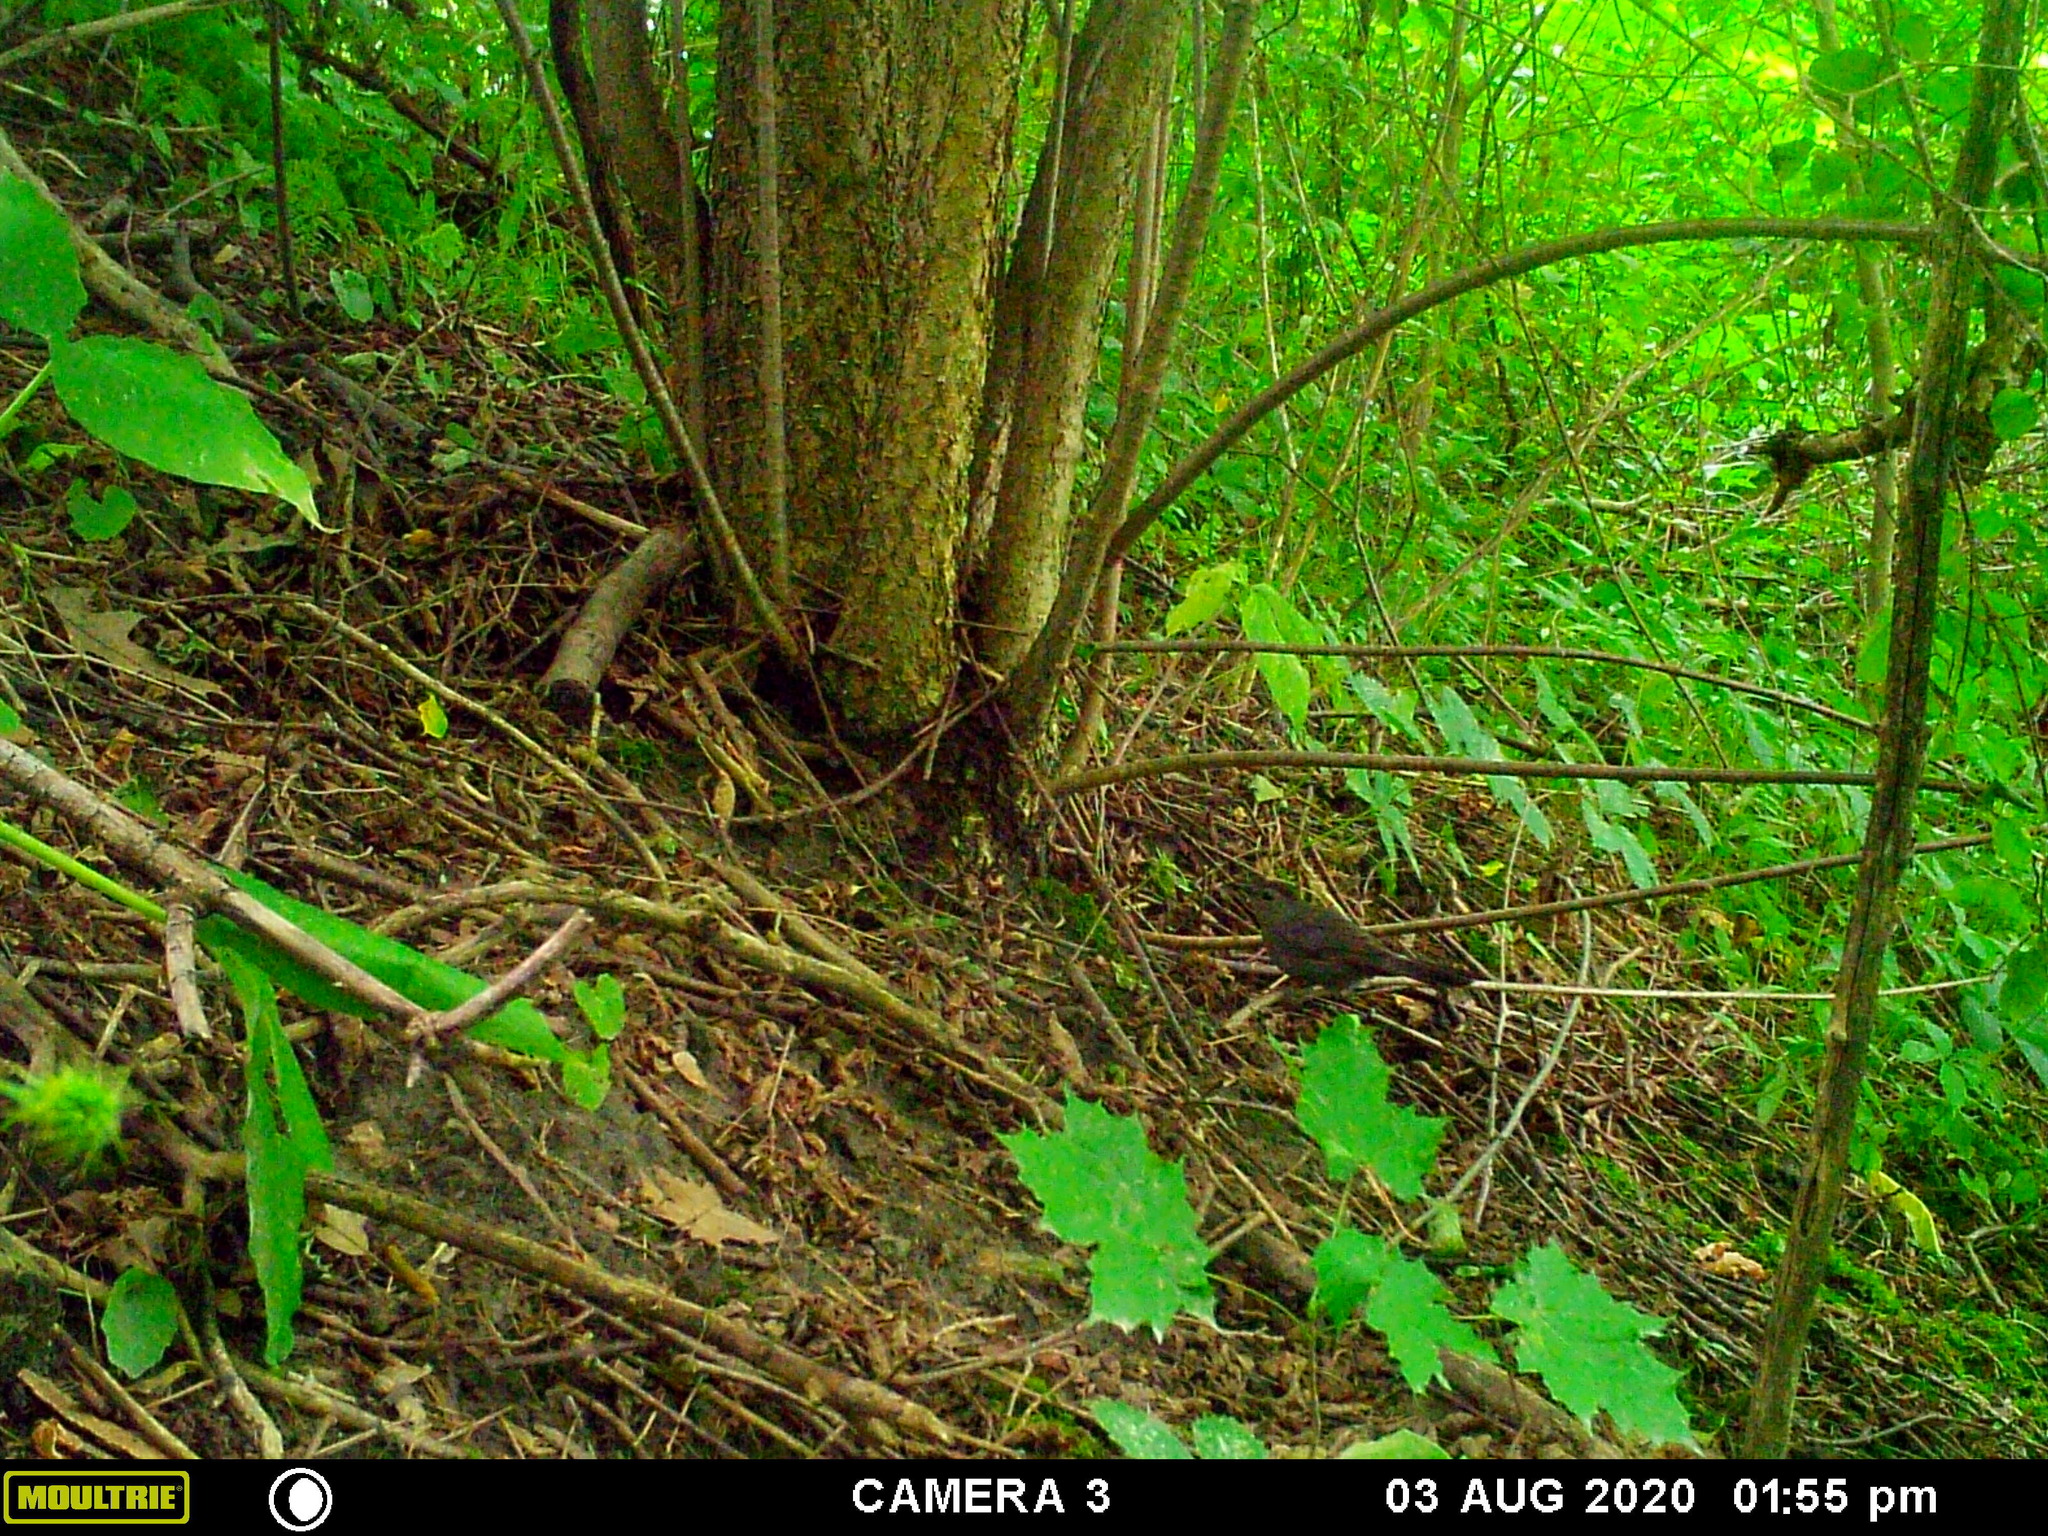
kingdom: Animalia
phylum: Chordata
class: Aves
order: Passeriformes
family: Mimidae
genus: Dumetella
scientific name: Dumetella carolinensis
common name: Gray catbird
